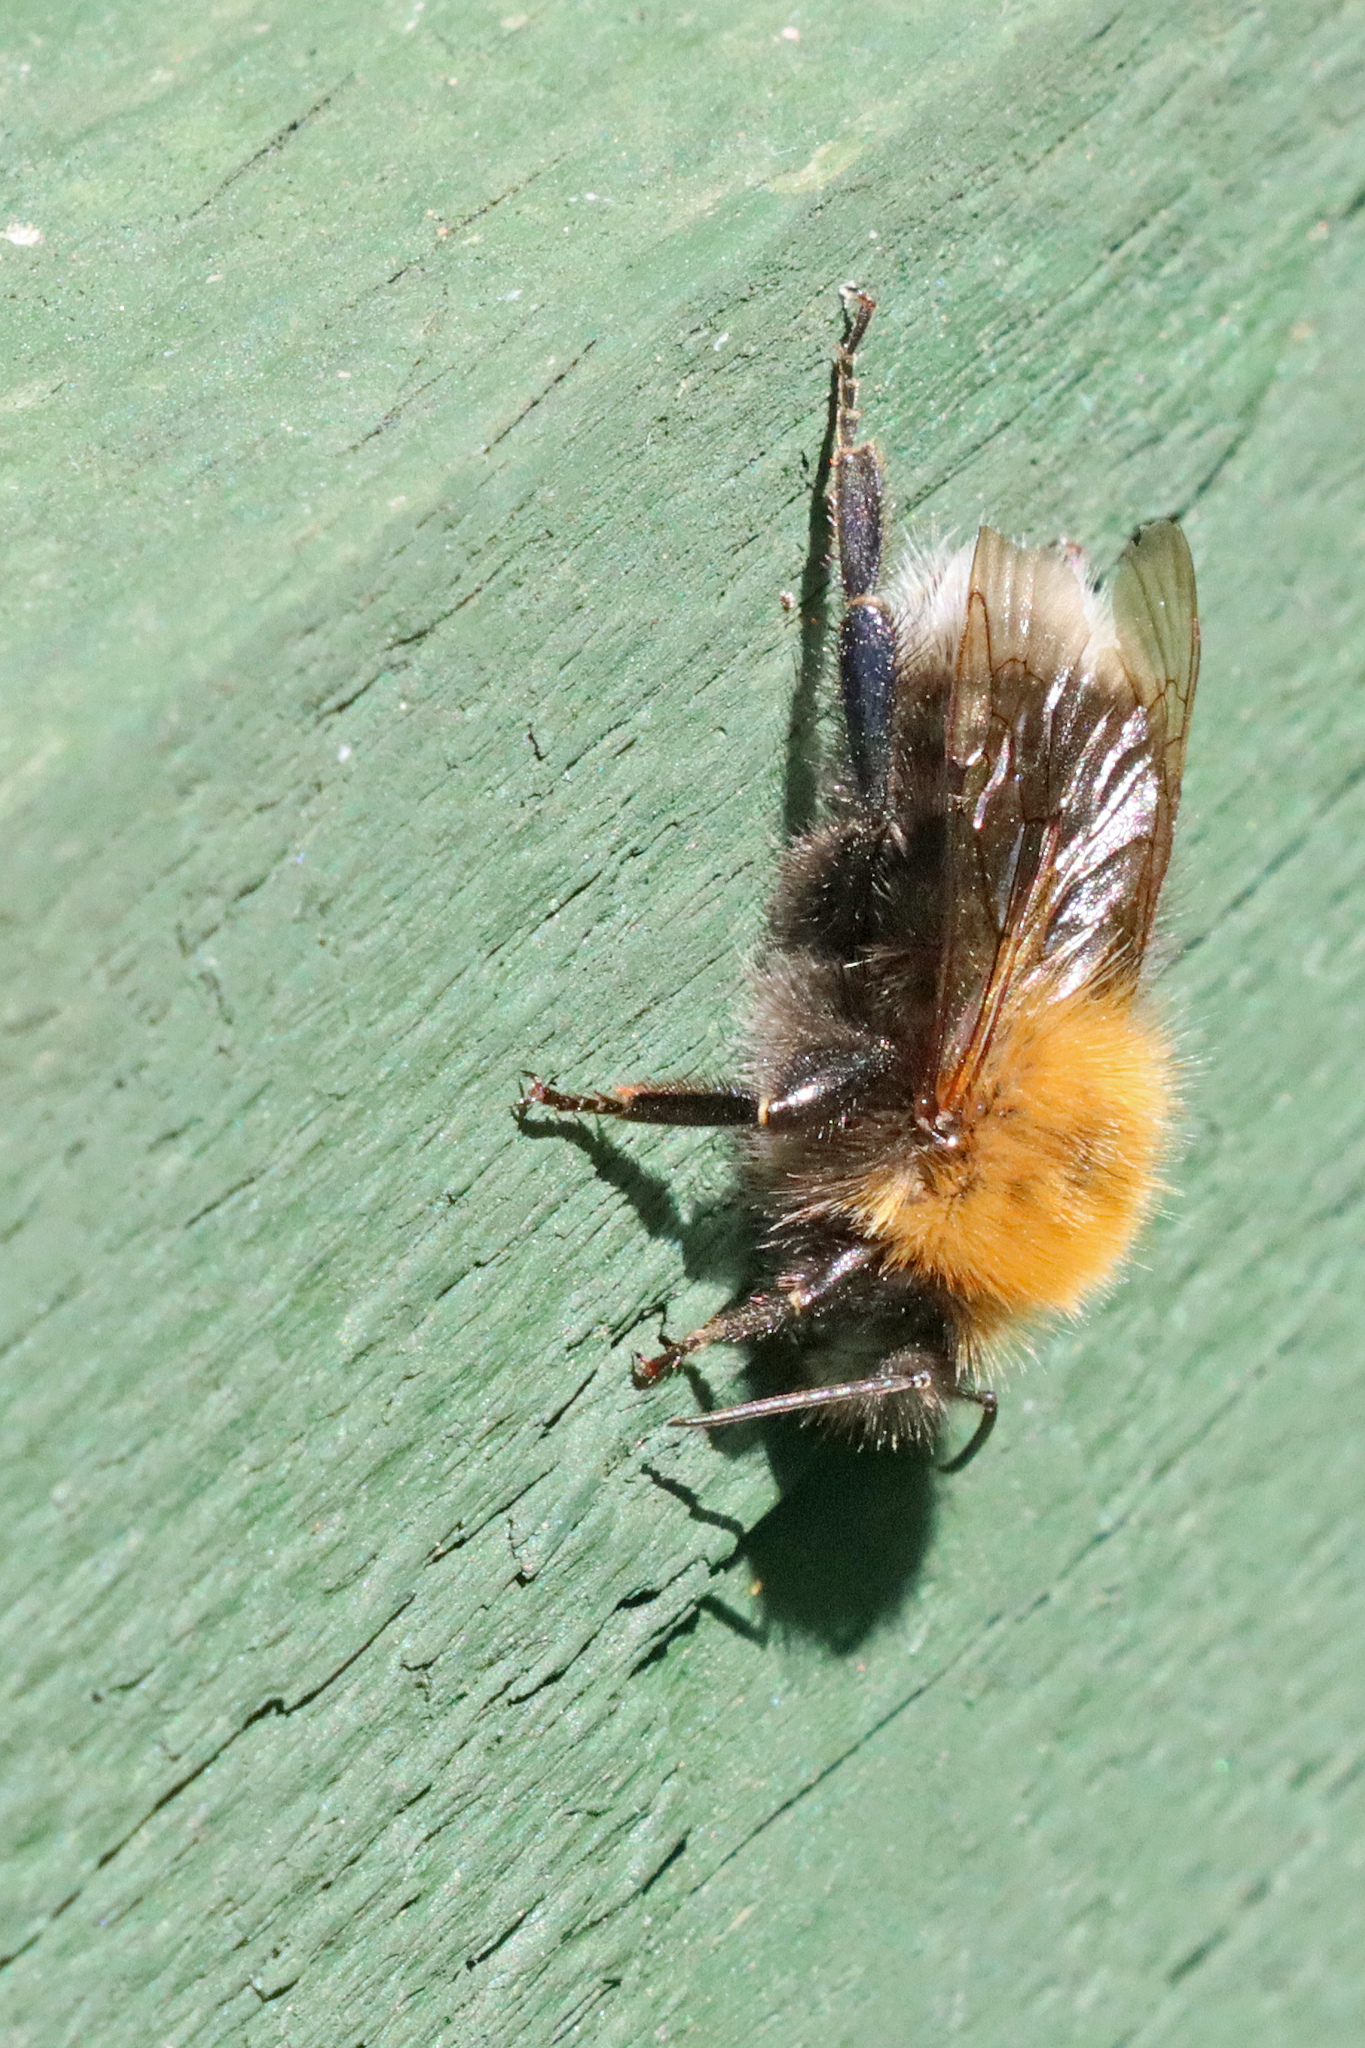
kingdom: Animalia
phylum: Arthropoda
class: Insecta
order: Hymenoptera
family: Apidae
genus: Bombus
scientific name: Bombus hypnorum
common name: New garden bumblebee
